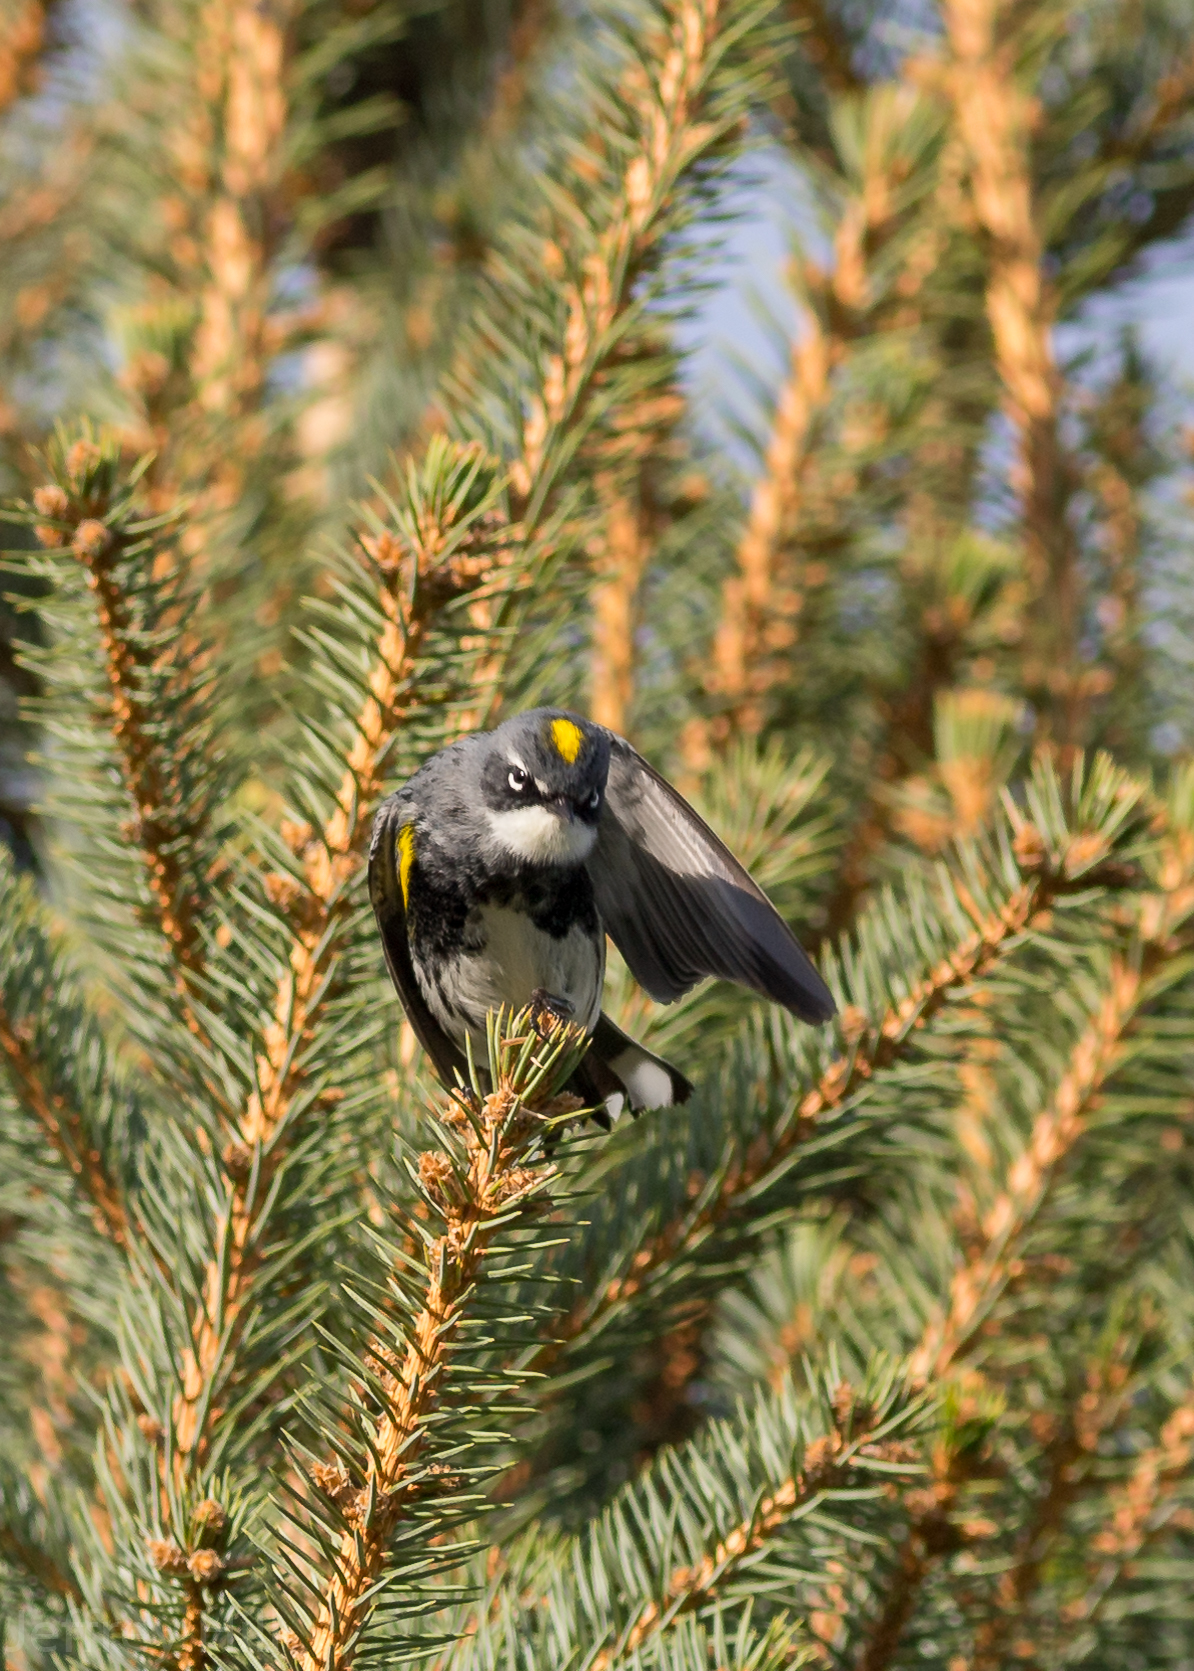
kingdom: Animalia
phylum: Chordata
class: Aves
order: Passeriformes
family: Parulidae
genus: Setophaga
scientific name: Setophaga coronata
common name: Myrtle warbler
